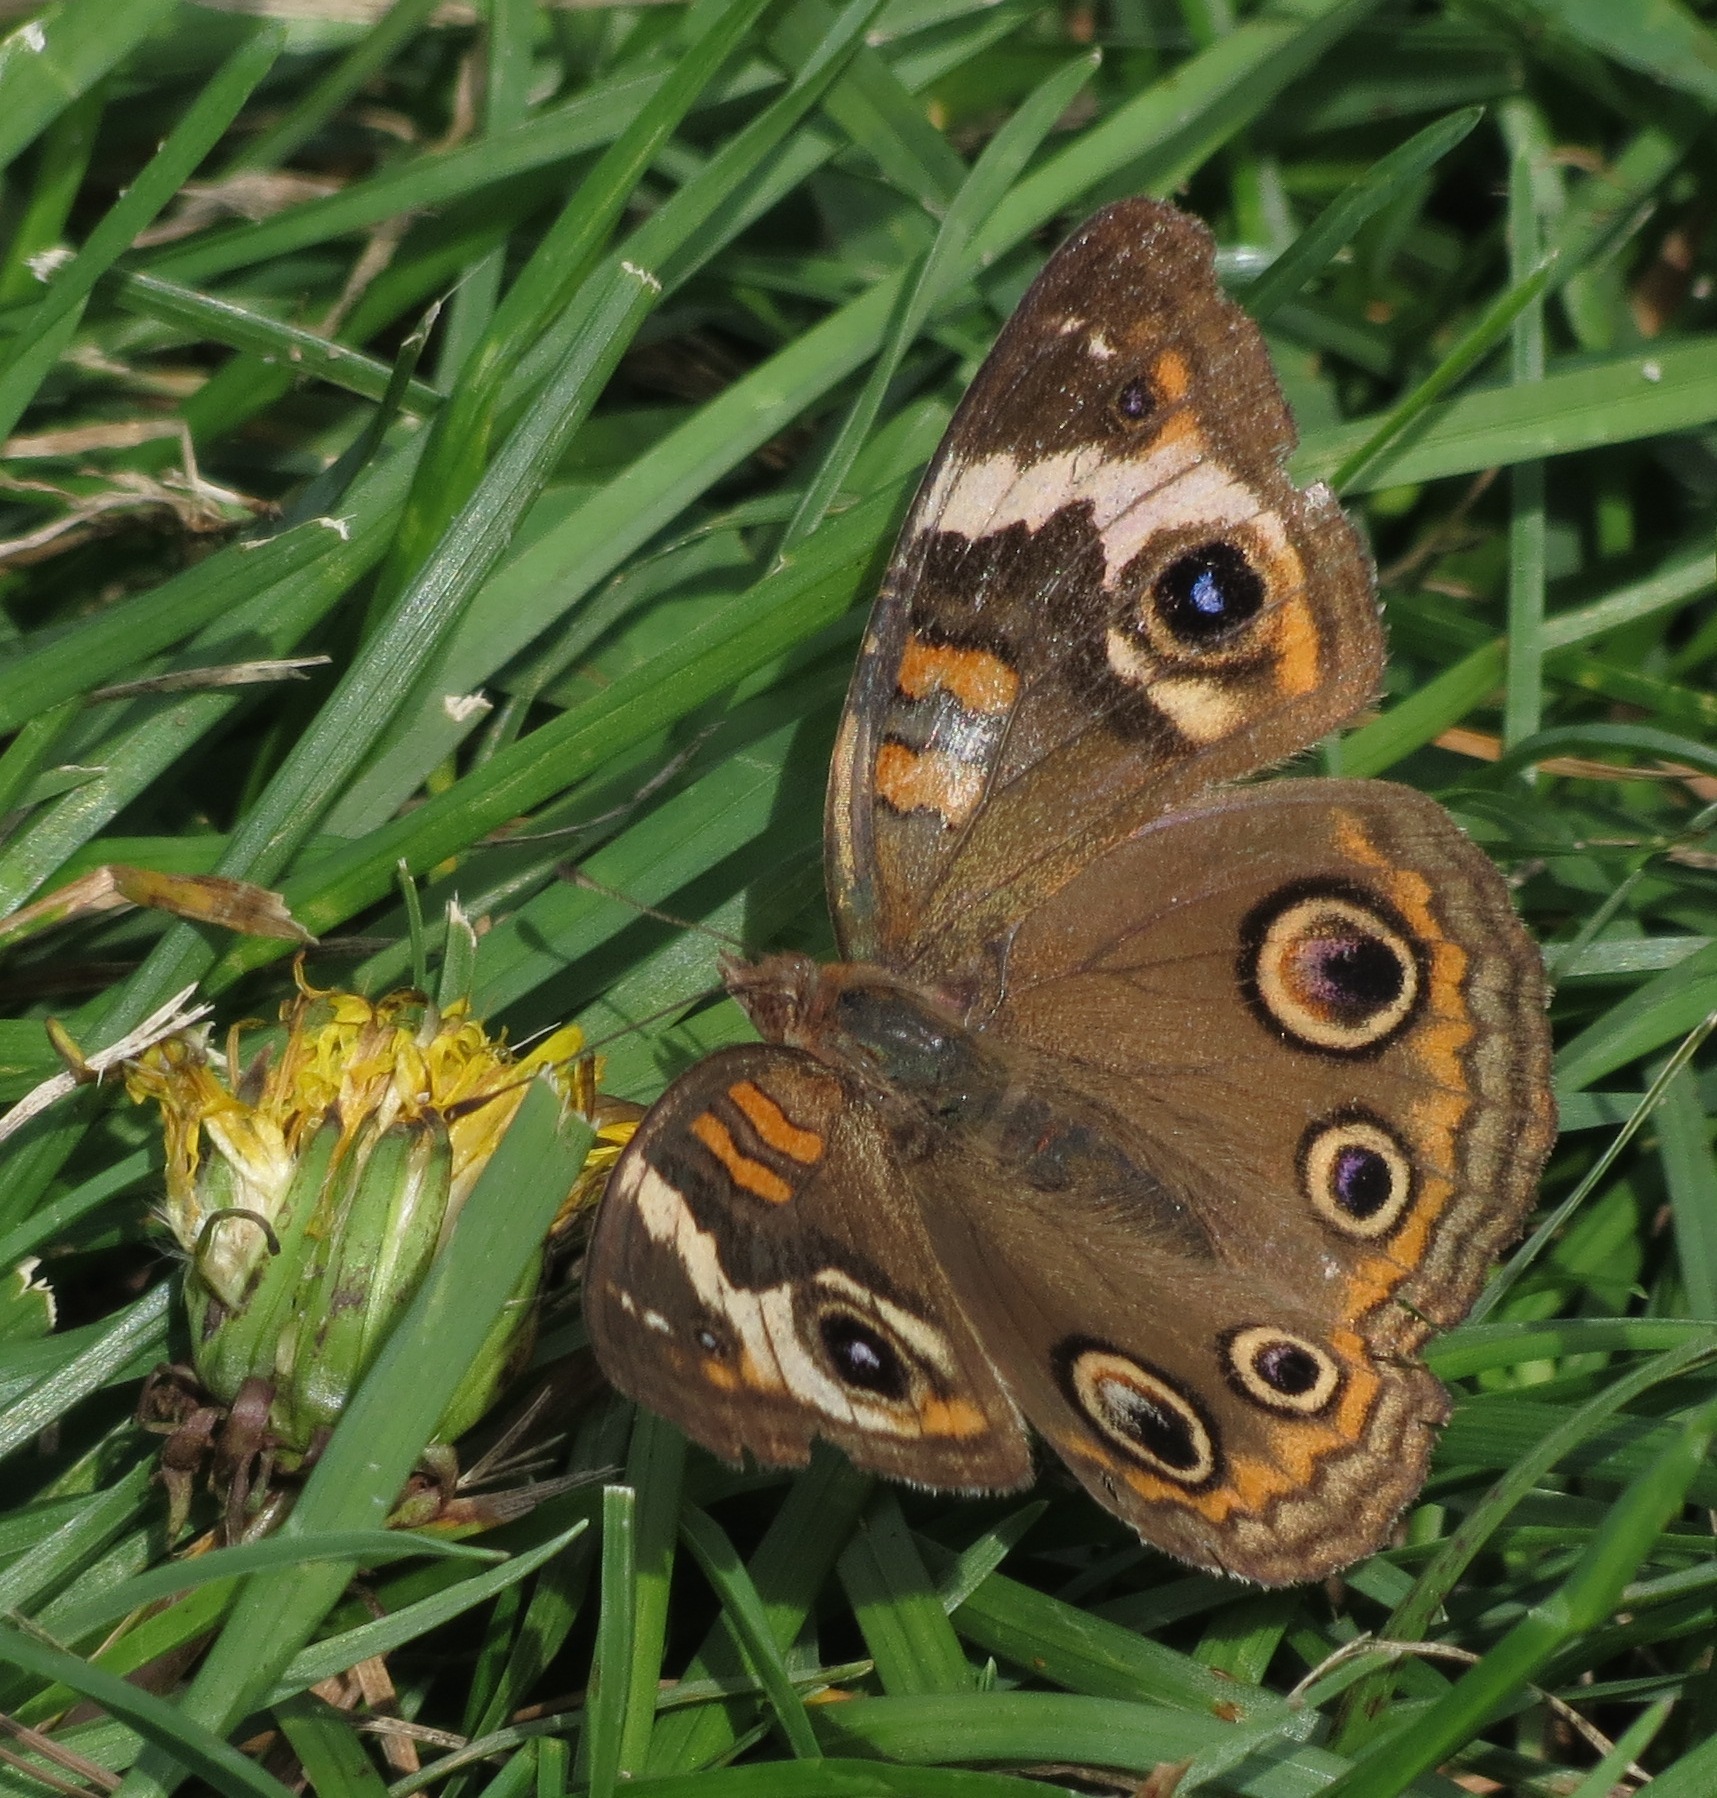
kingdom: Animalia
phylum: Arthropoda
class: Insecta
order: Lepidoptera
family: Nymphalidae
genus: Junonia
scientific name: Junonia coenia
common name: Common buckeye
